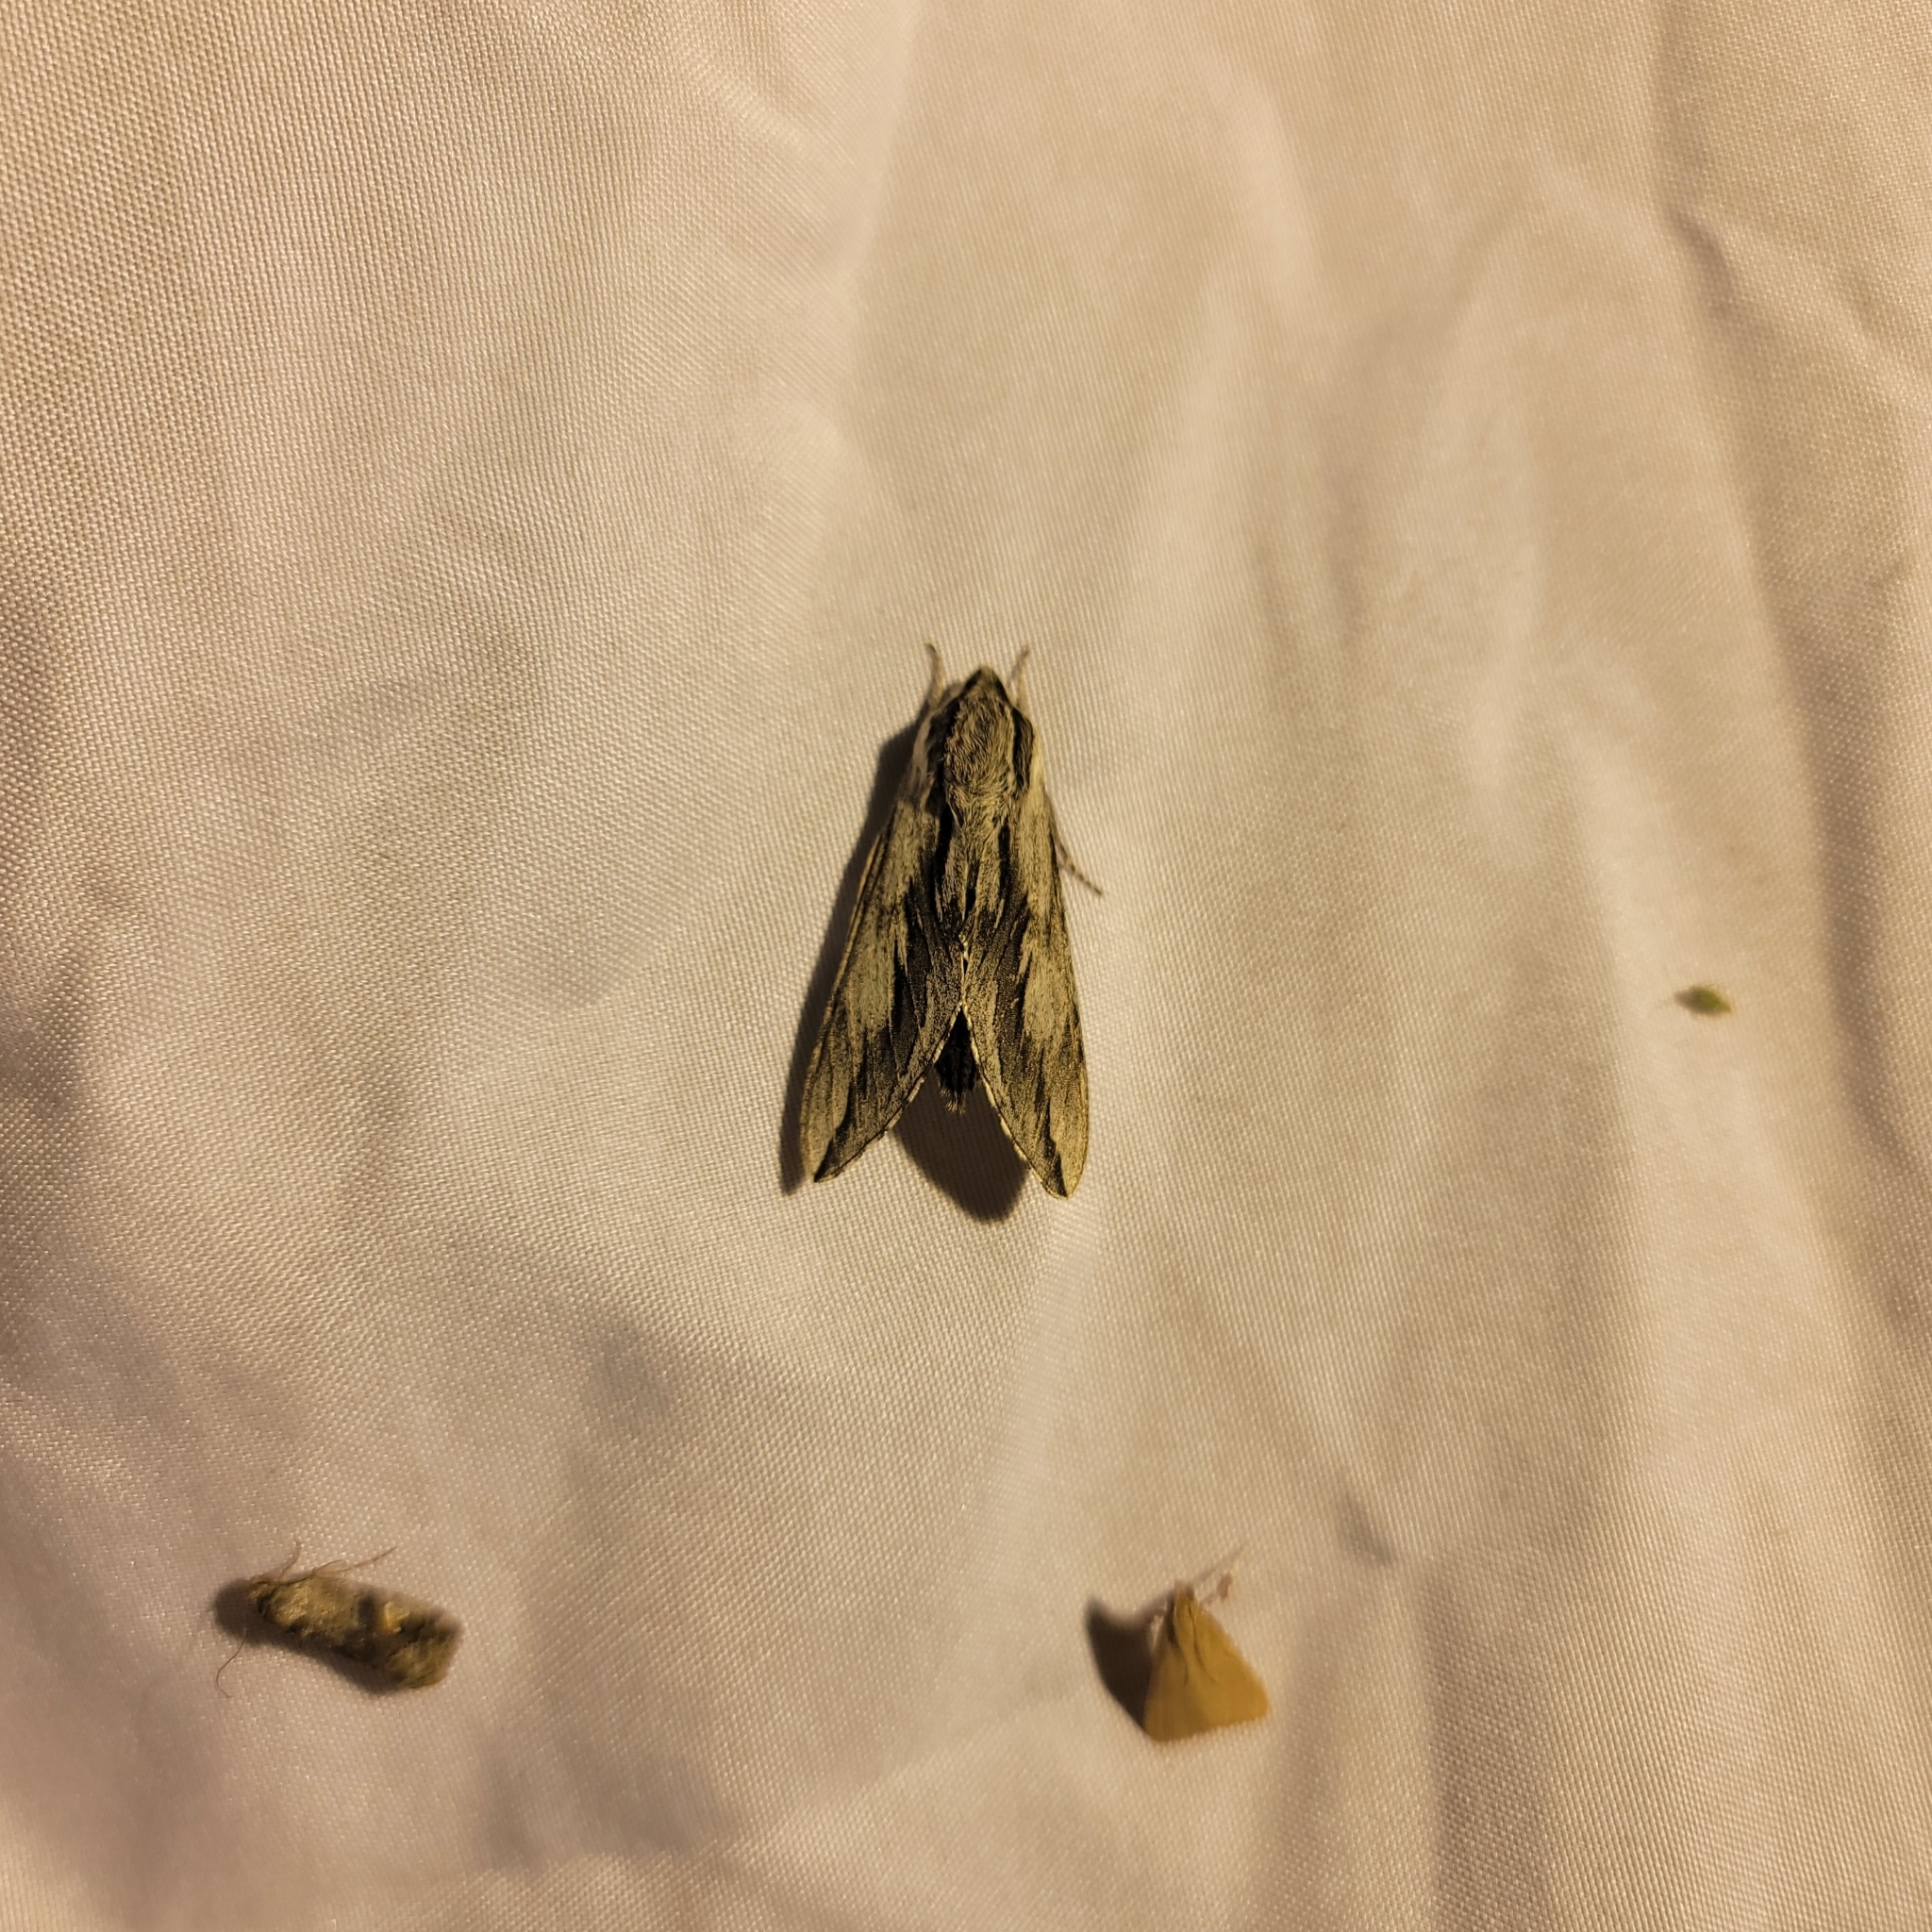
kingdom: Animalia
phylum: Arthropoda
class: Insecta
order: Lepidoptera
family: Sphingidae
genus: Sphinx
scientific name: Sphinx dollii
